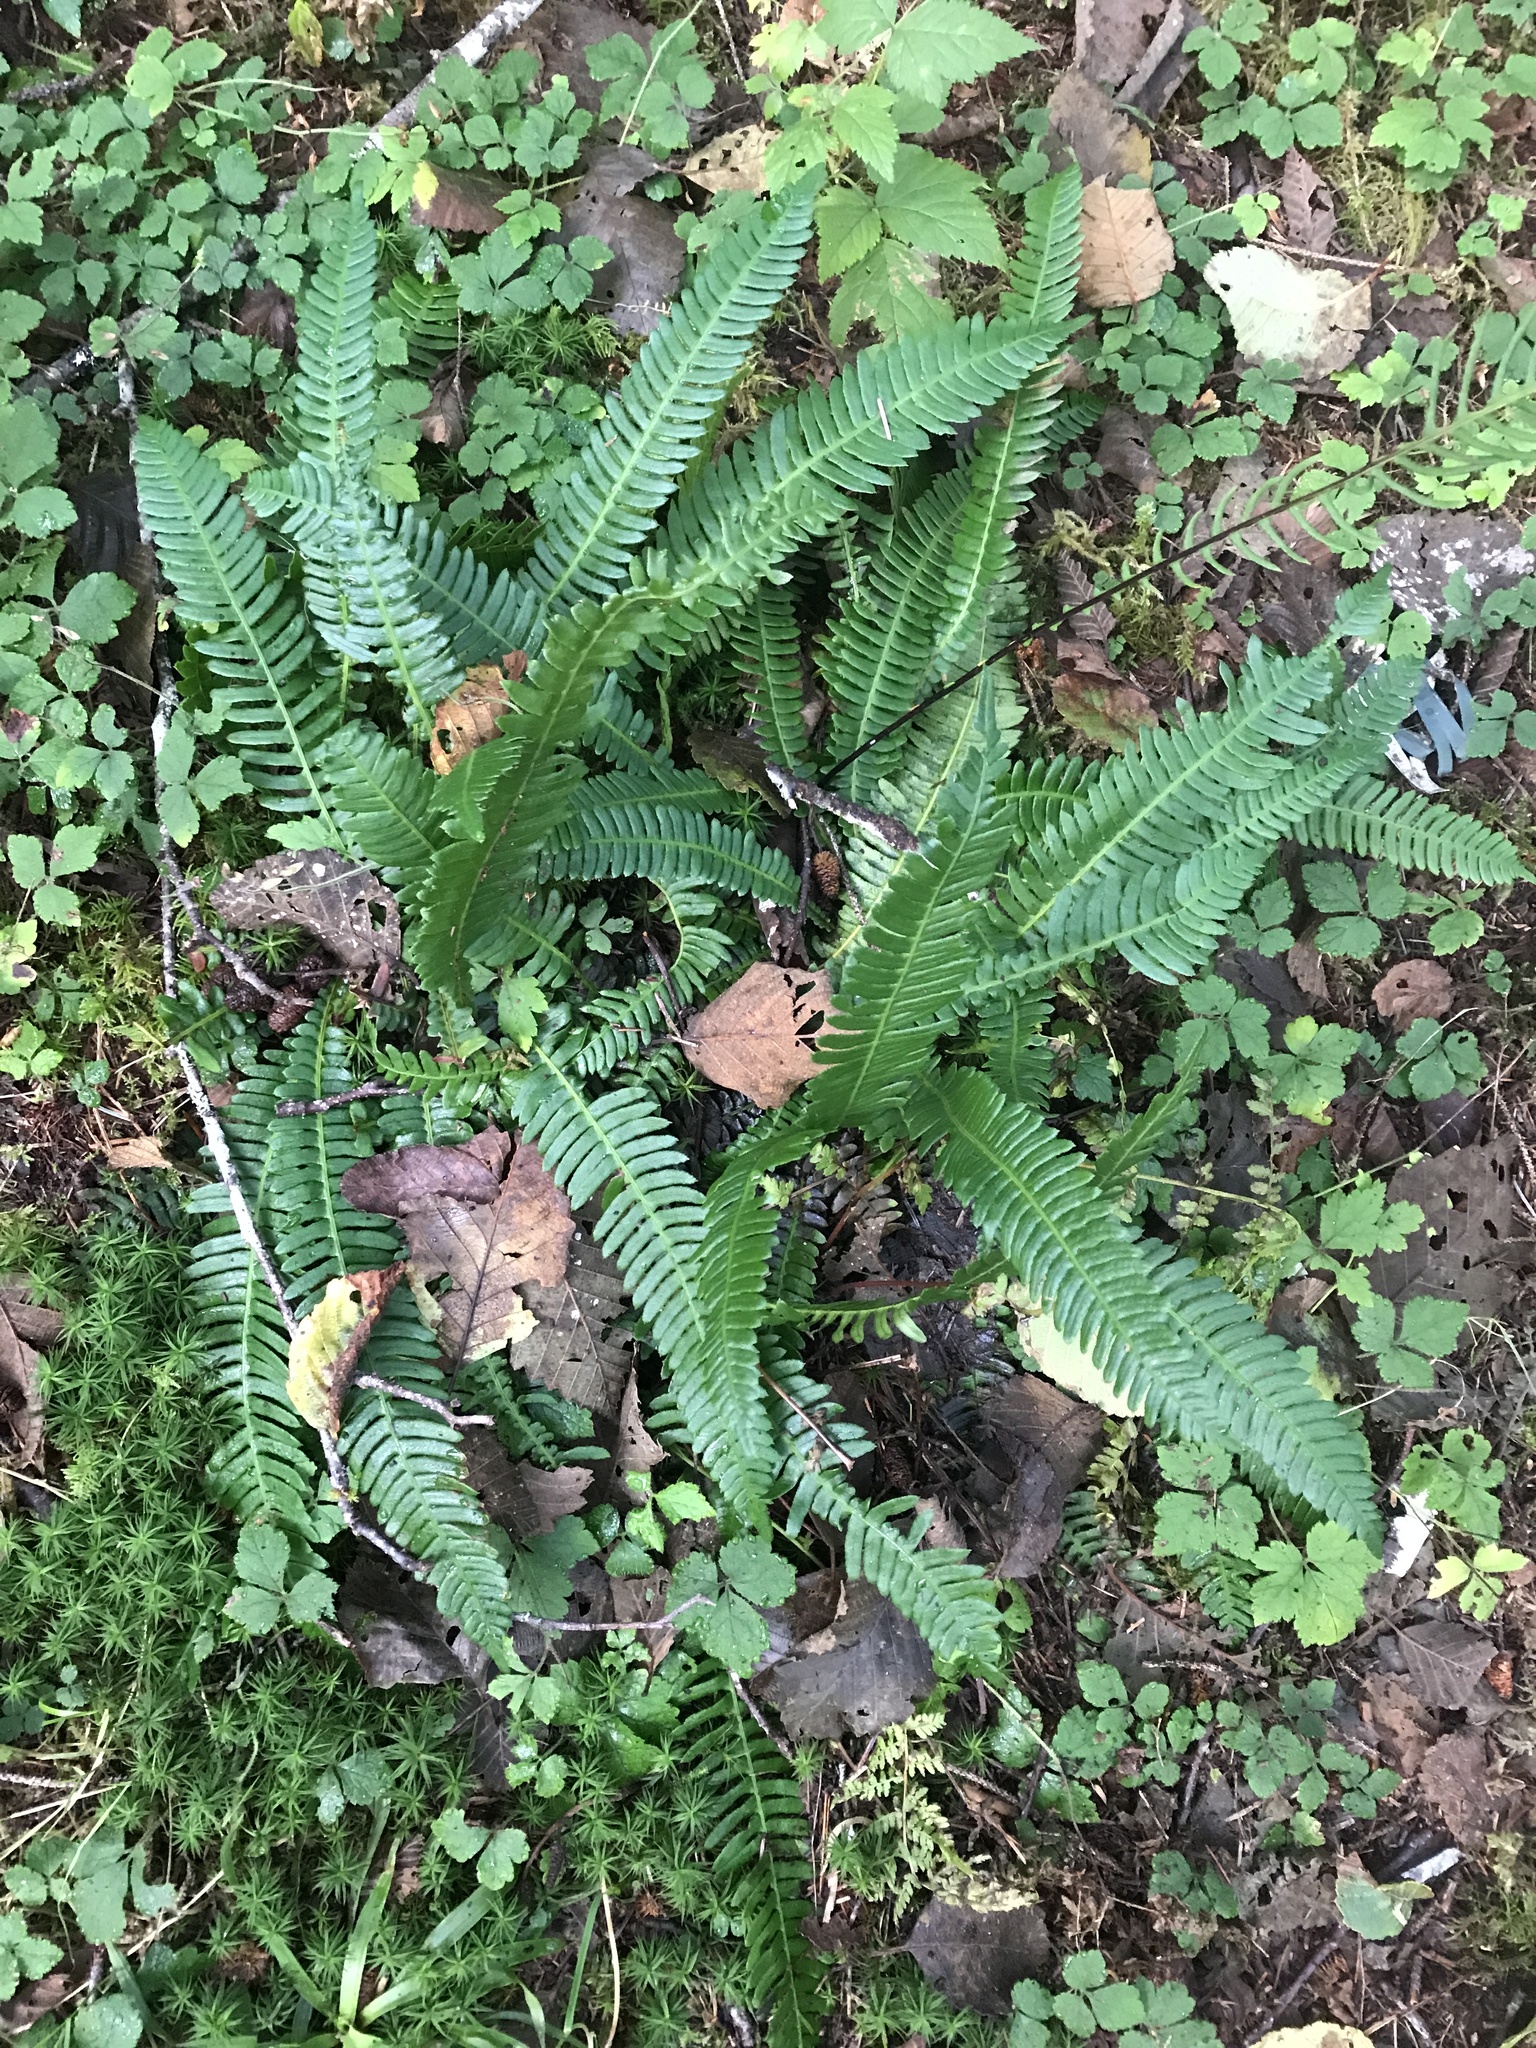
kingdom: Plantae
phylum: Tracheophyta
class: Polypodiopsida
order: Polypodiales
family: Blechnaceae
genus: Struthiopteris
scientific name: Struthiopteris spicant
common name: Deer fern
